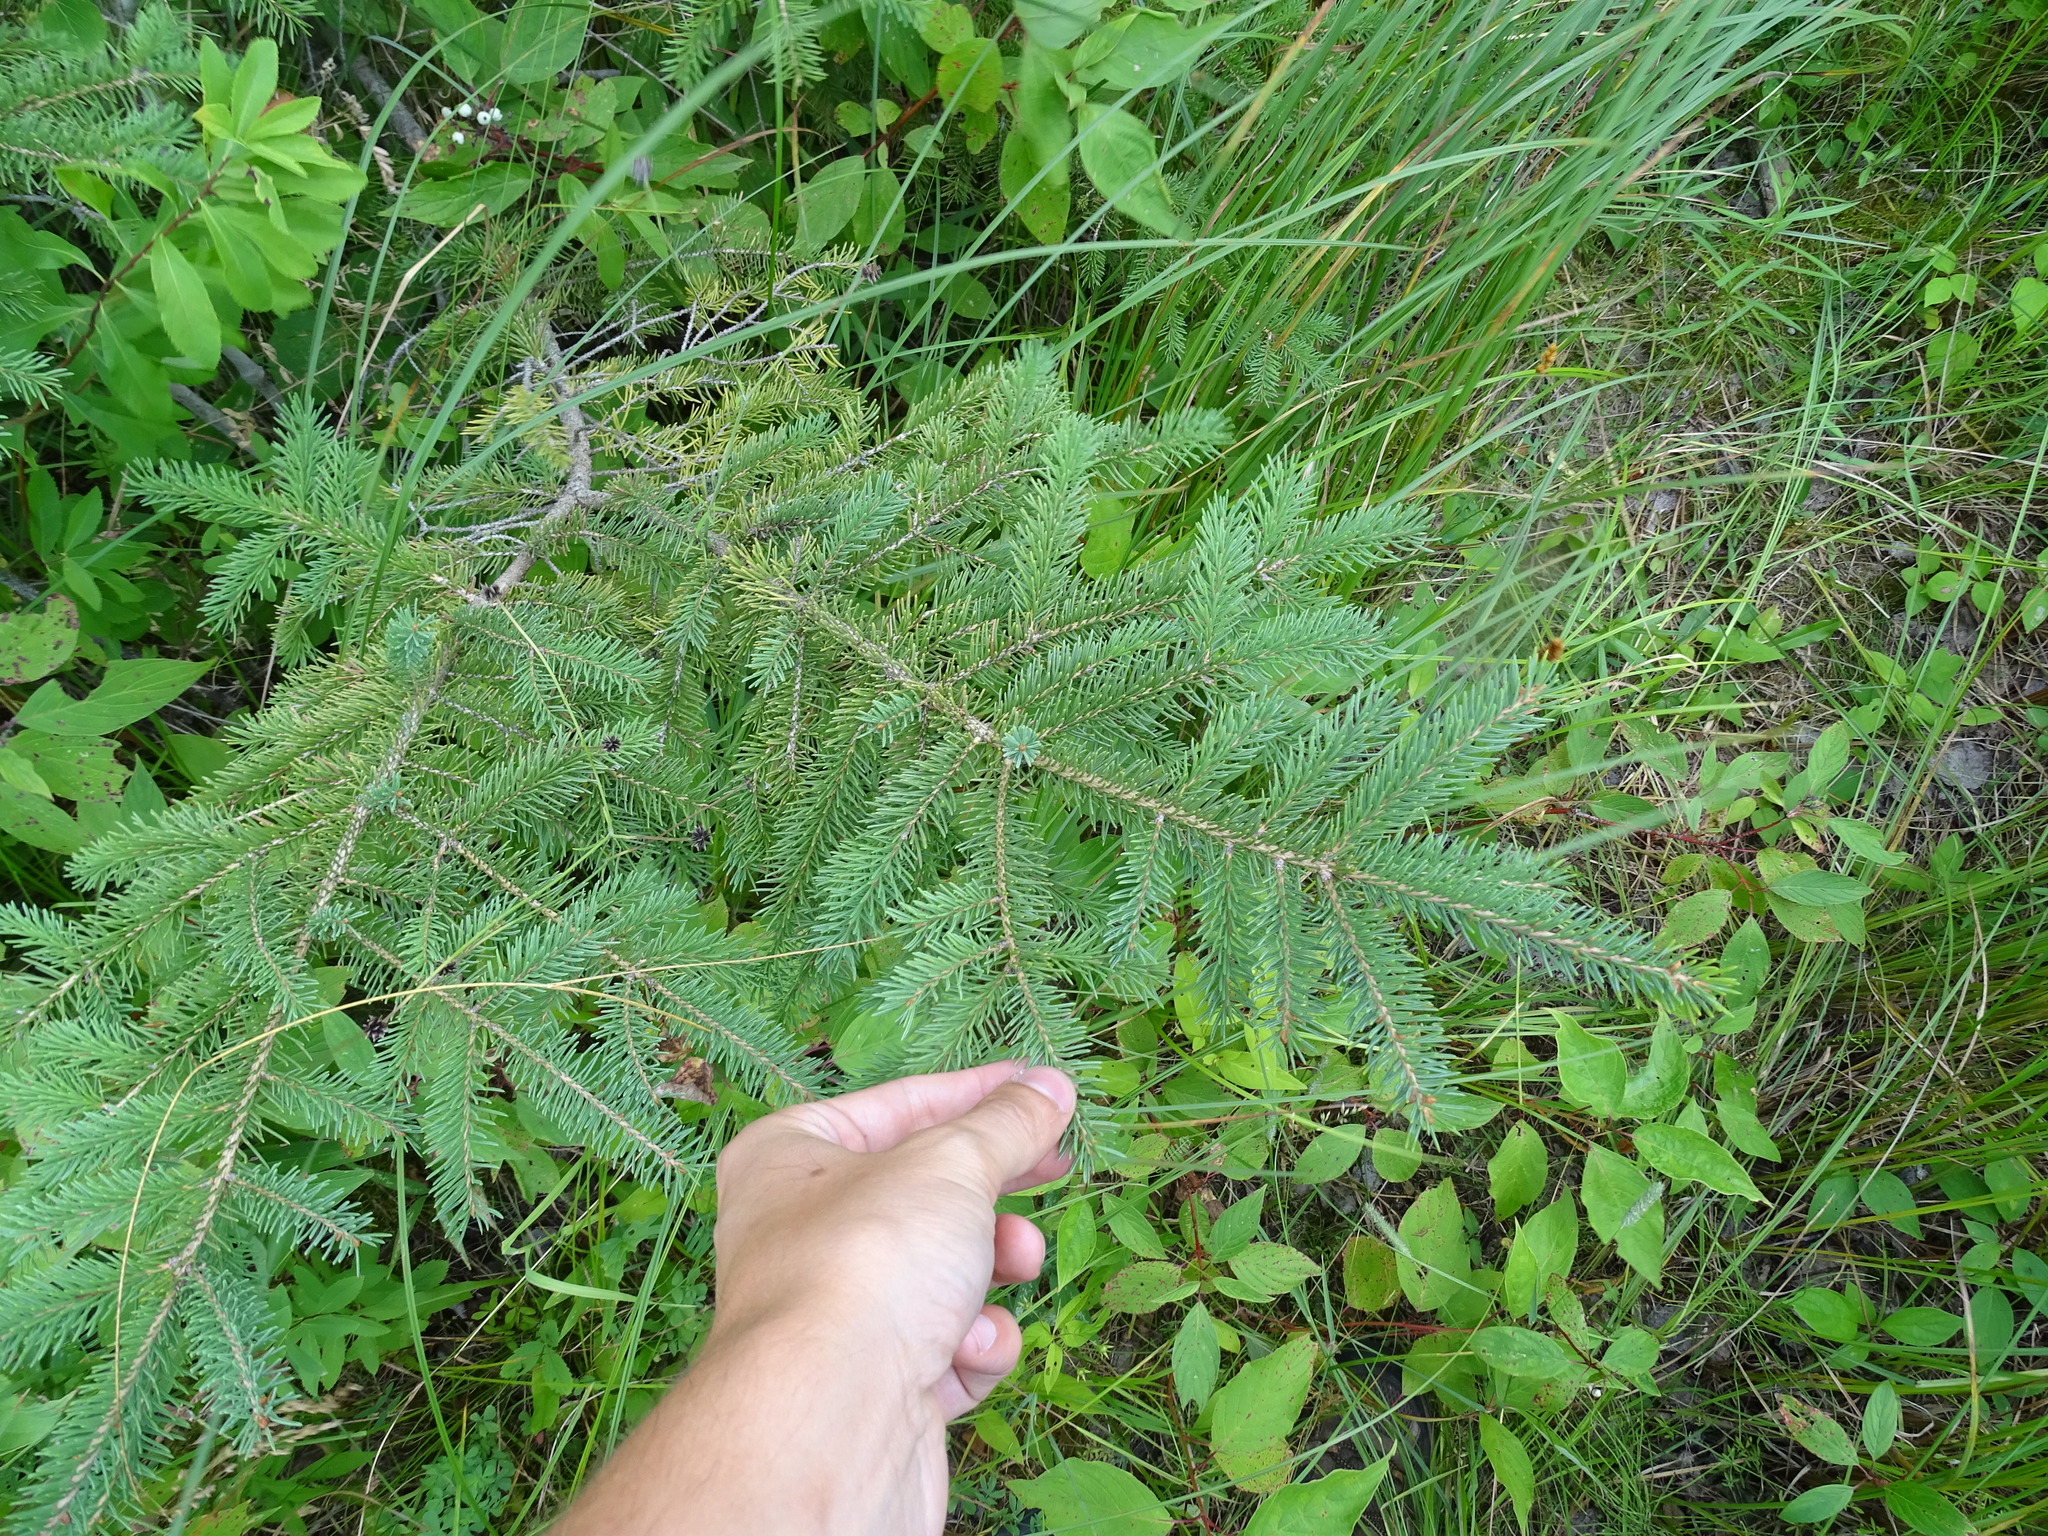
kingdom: Plantae
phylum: Tracheophyta
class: Pinopsida
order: Pinales
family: Pinaceae
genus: Picea
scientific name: Picea glauca
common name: White spruce
